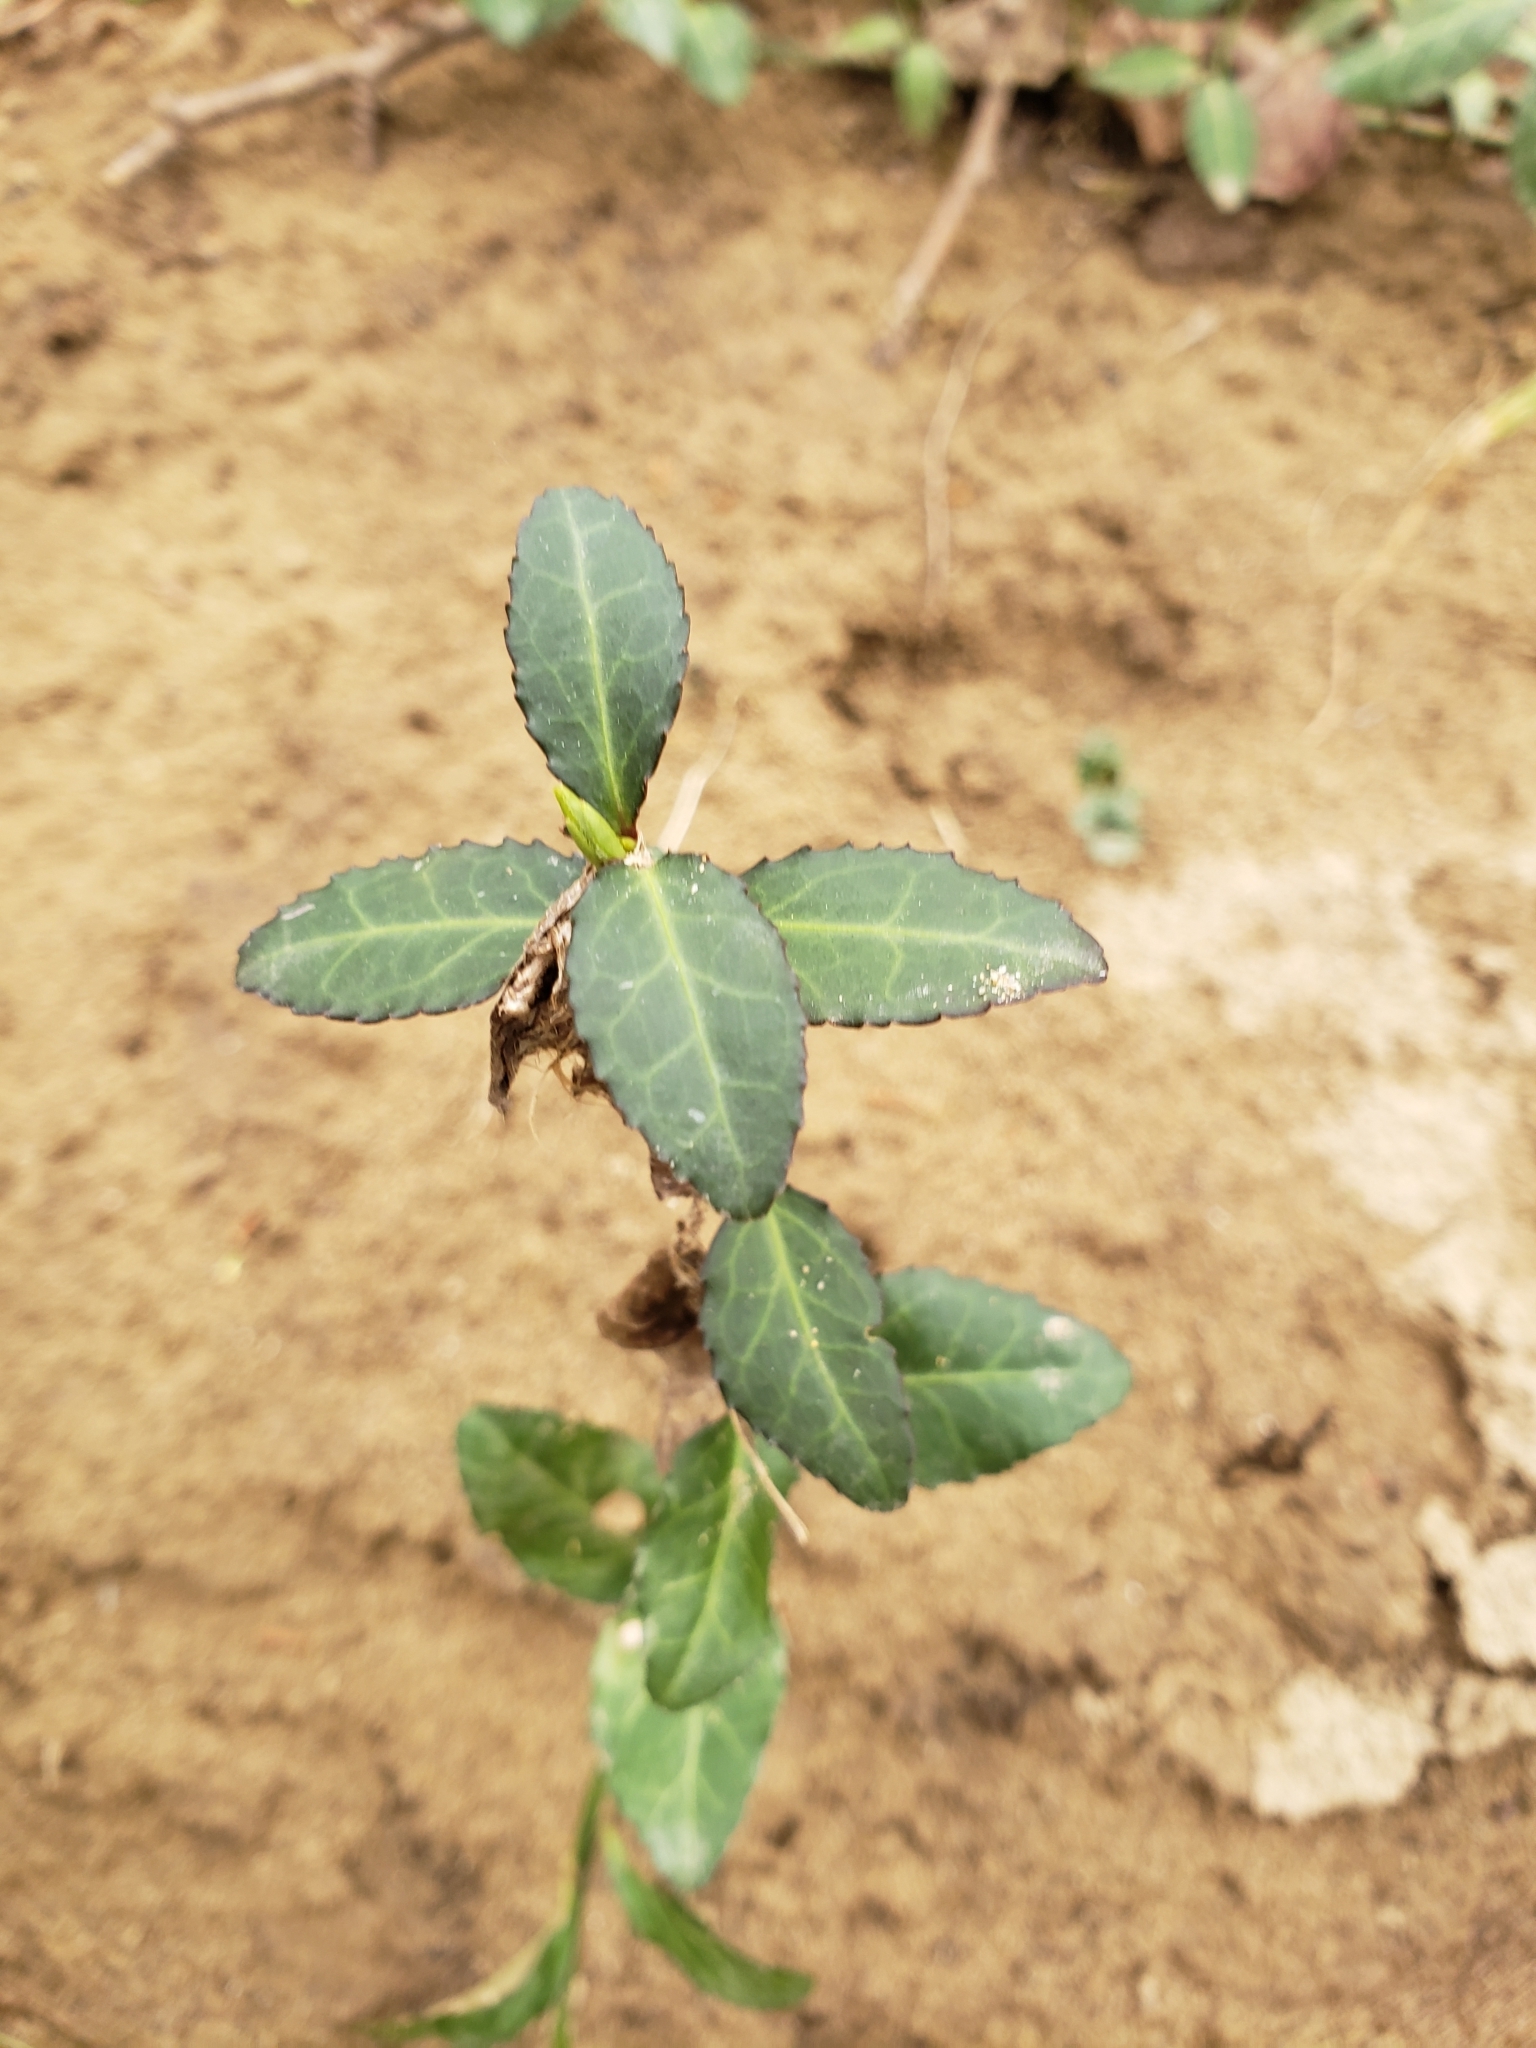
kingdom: Plantae
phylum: Tracheophyta
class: Magnoliopsida
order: Celastrales
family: Celastraceae
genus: Euonymus
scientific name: Euonymus fortunei
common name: Climbing euonymus
